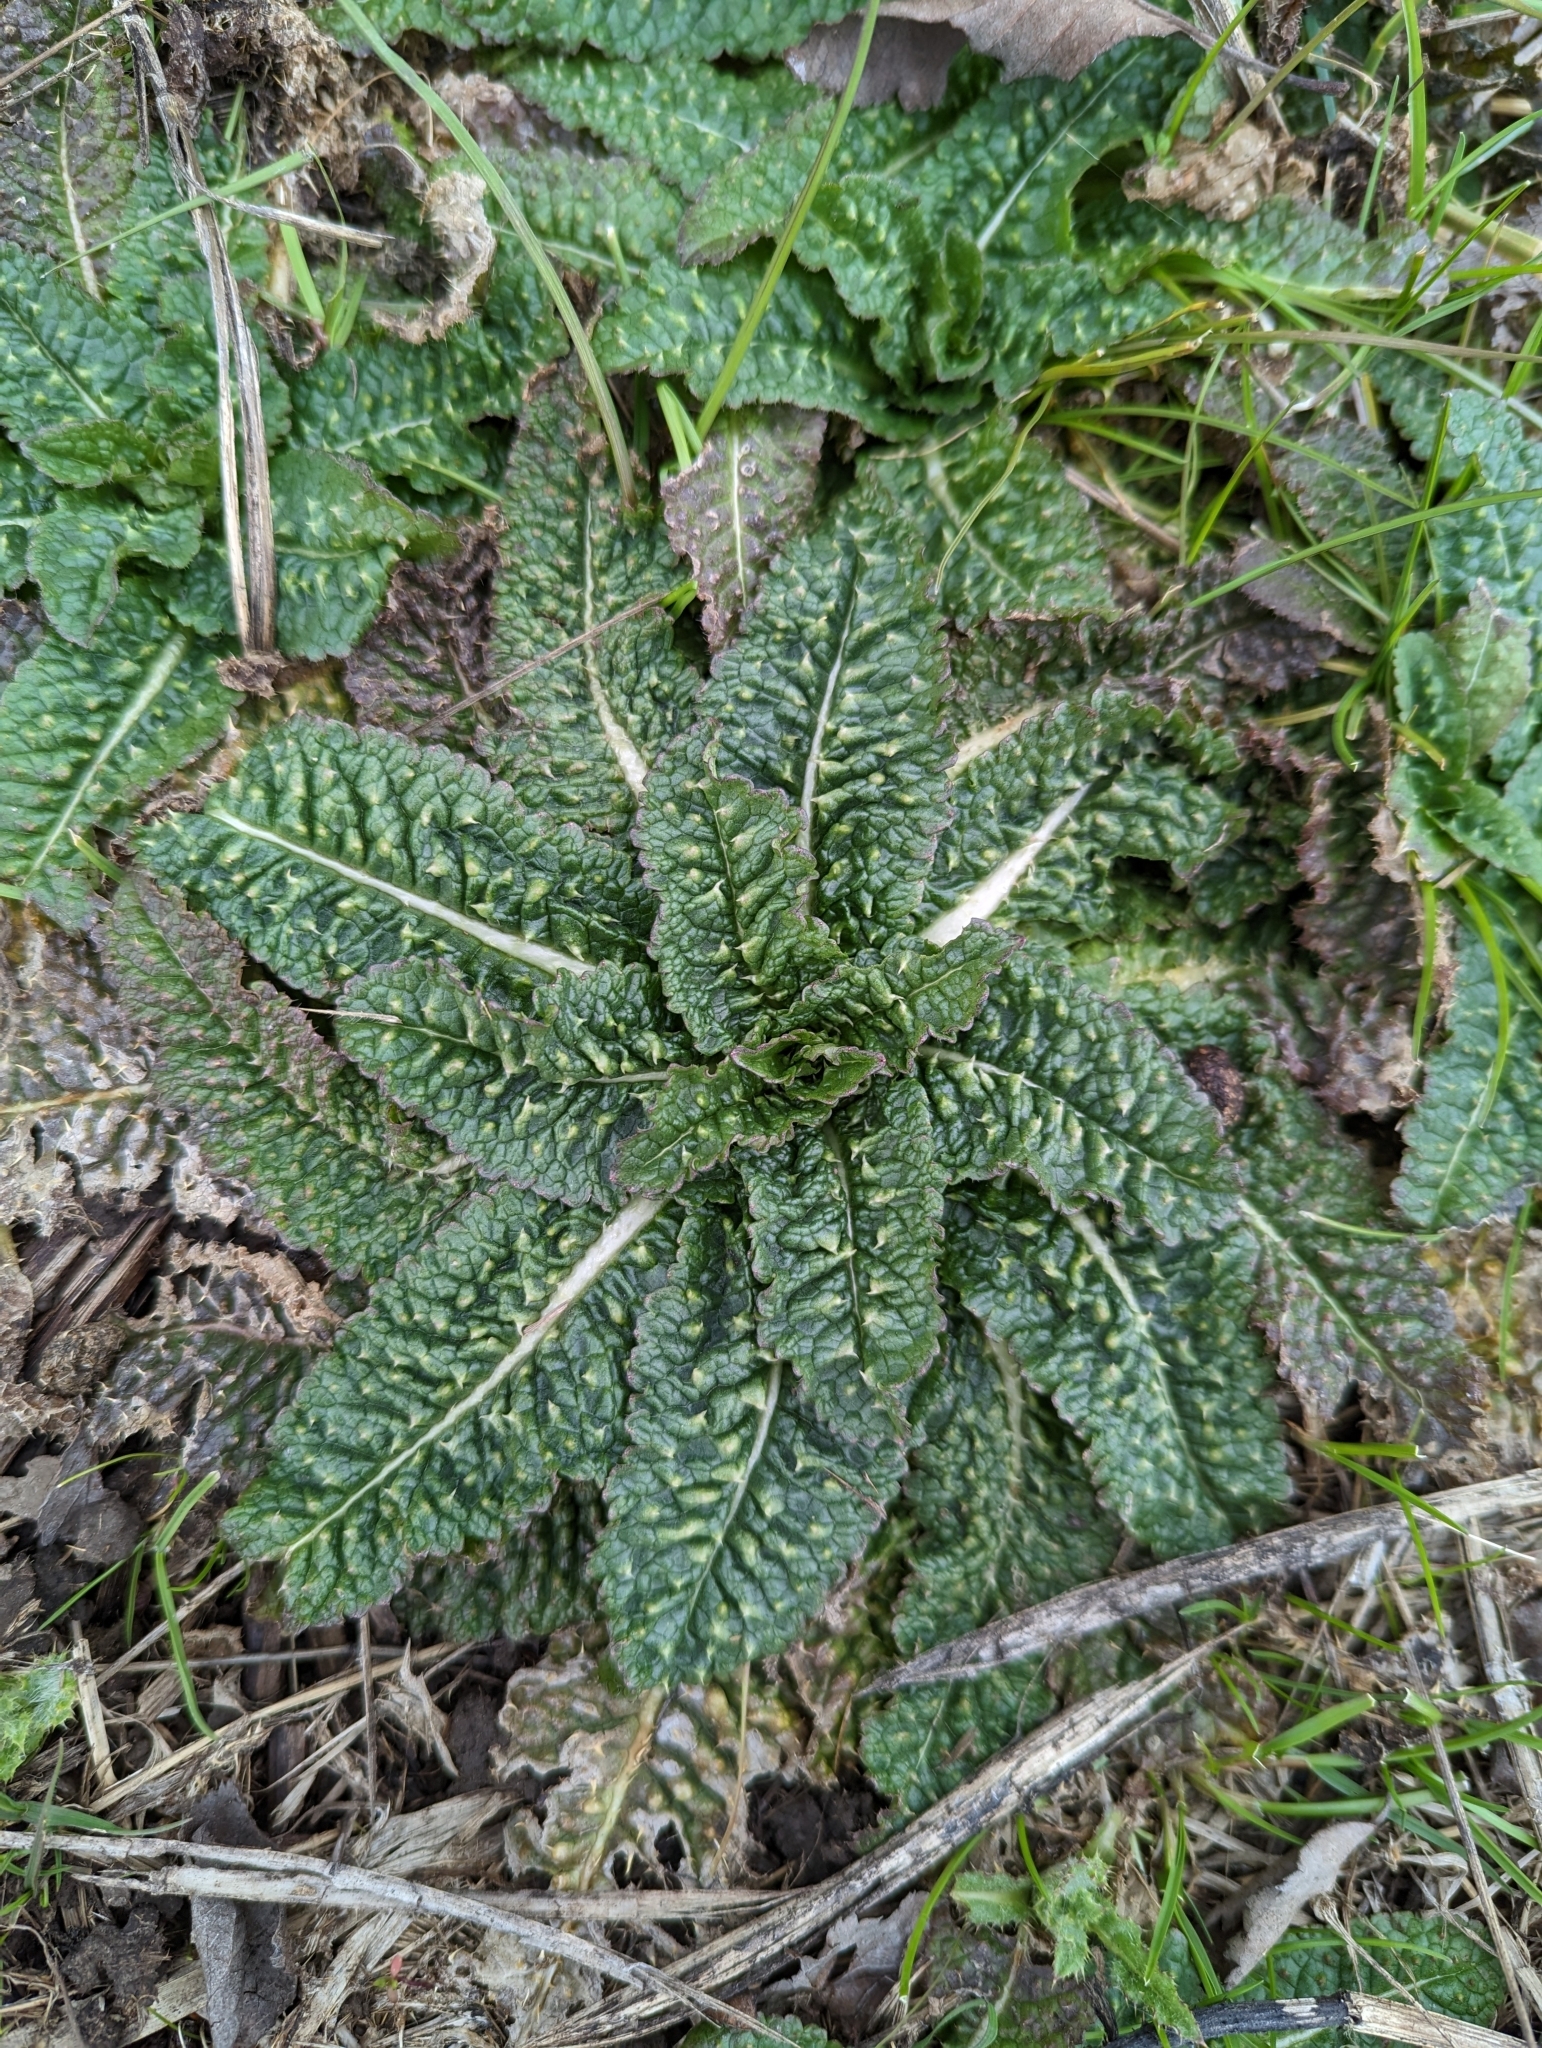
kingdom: Plantae
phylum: Tracheophyta
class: Magnoliopsida
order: Dipsacales
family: Caprifoliaceae
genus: Dipsacus
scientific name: Dipsacus fullonum
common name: Teasel
